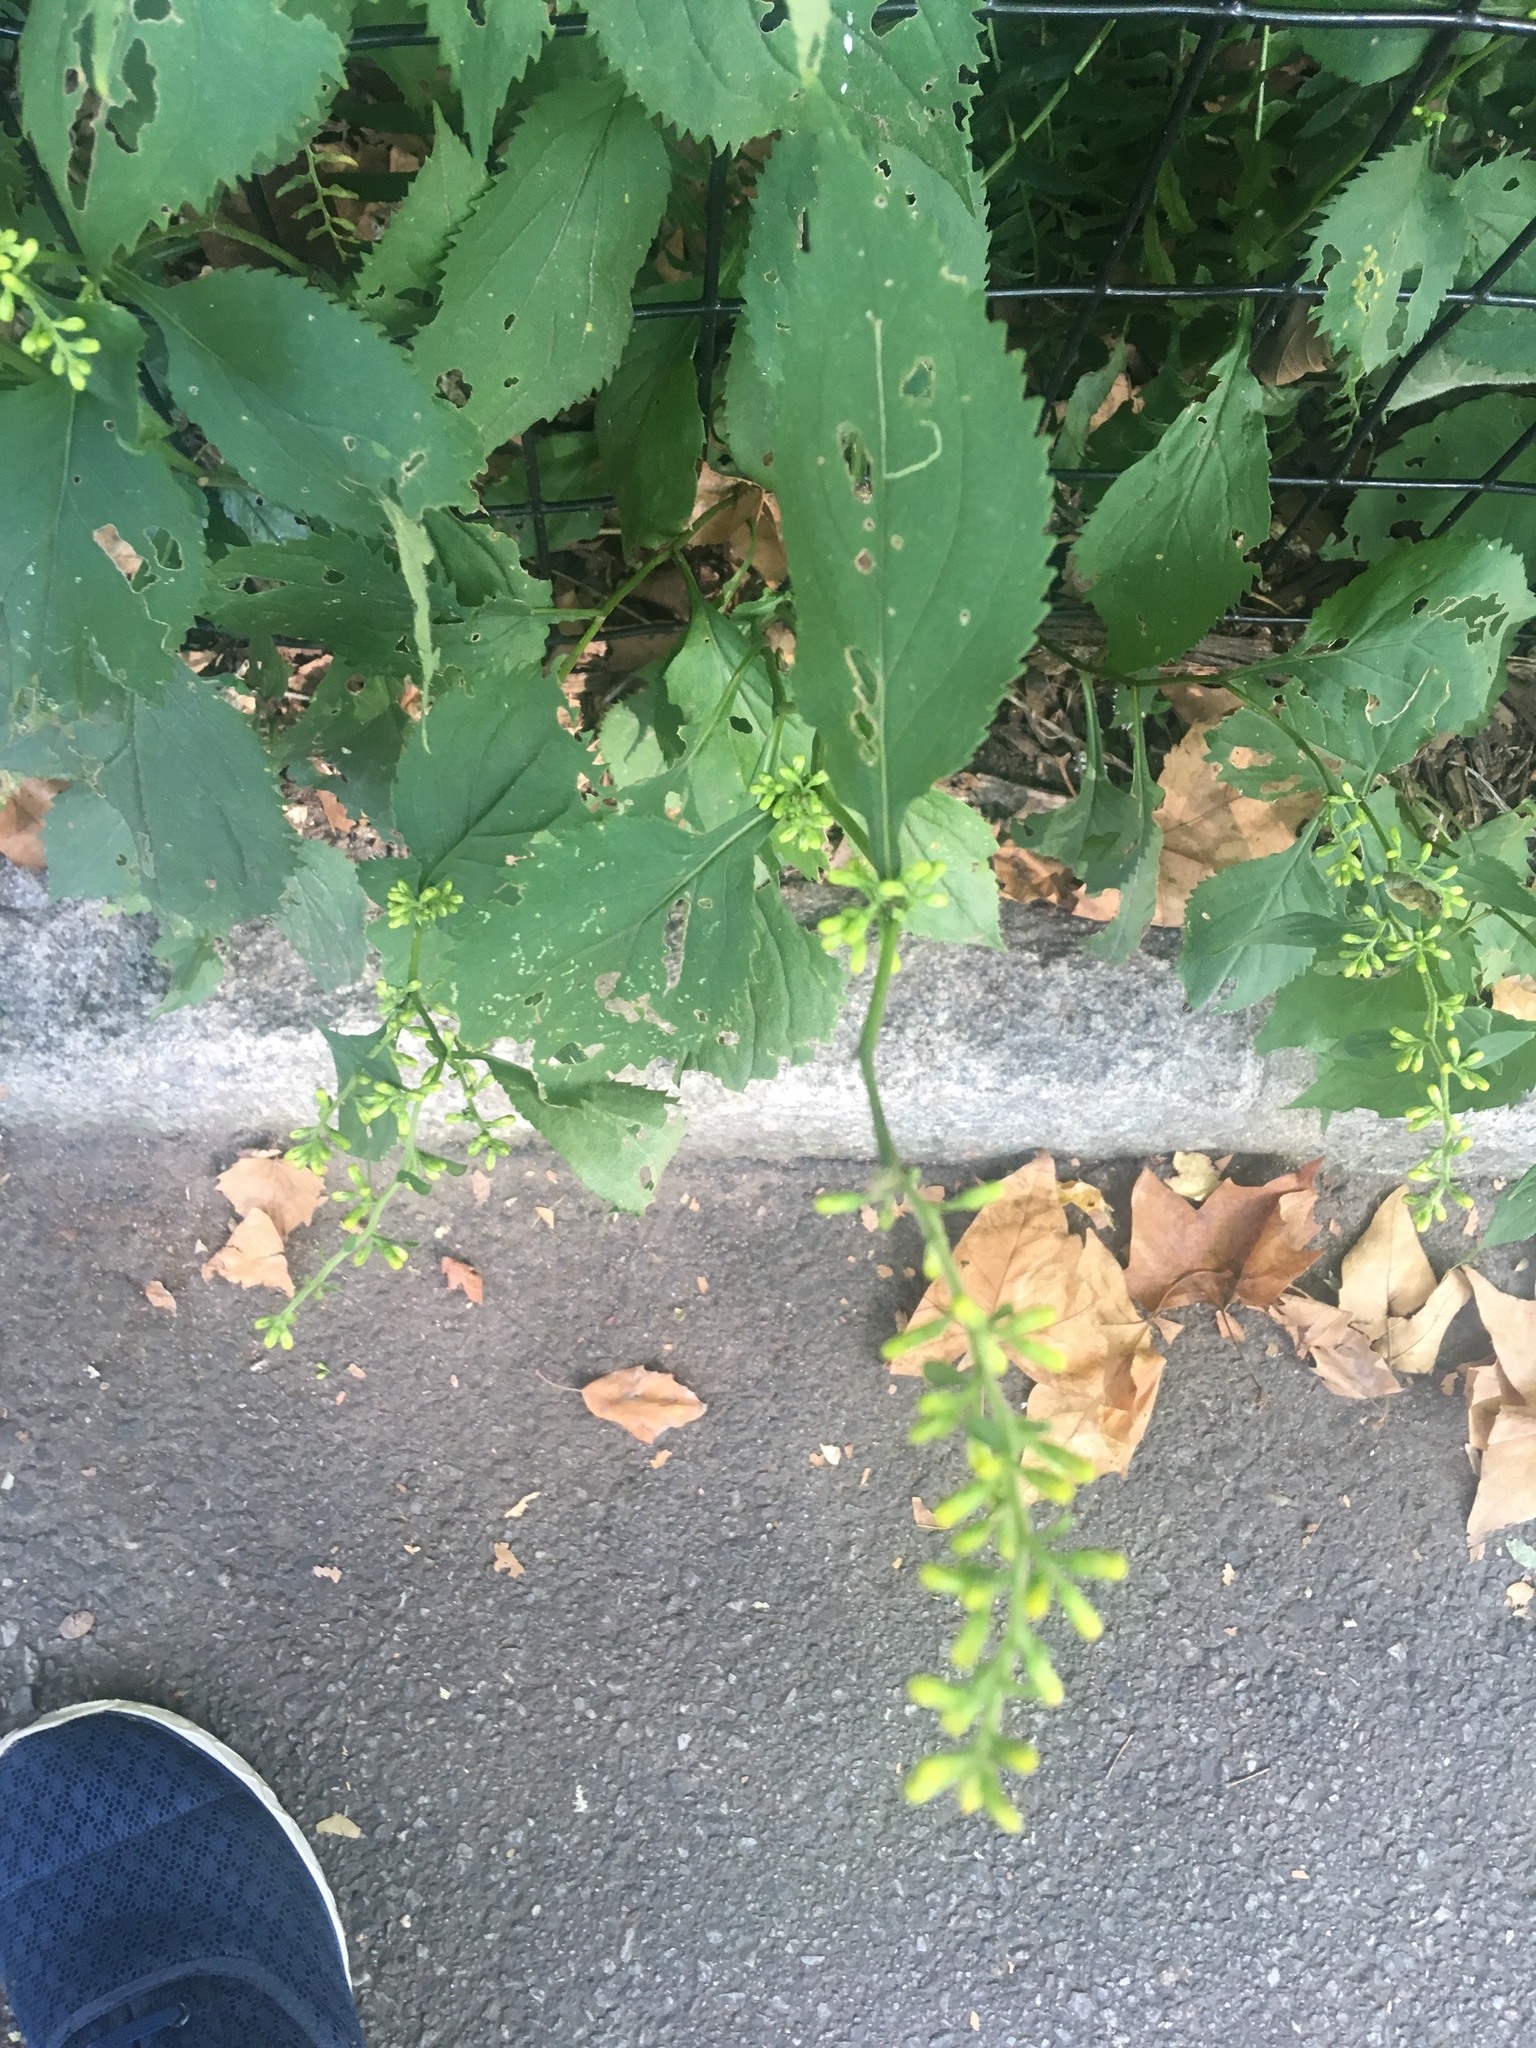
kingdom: Plantae
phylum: Tracheophyta
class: Magnoliopsida
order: Asterales
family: Asteraceae
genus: Solidago
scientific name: Solidago flexicaulis
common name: Zig-zag goldenrod
